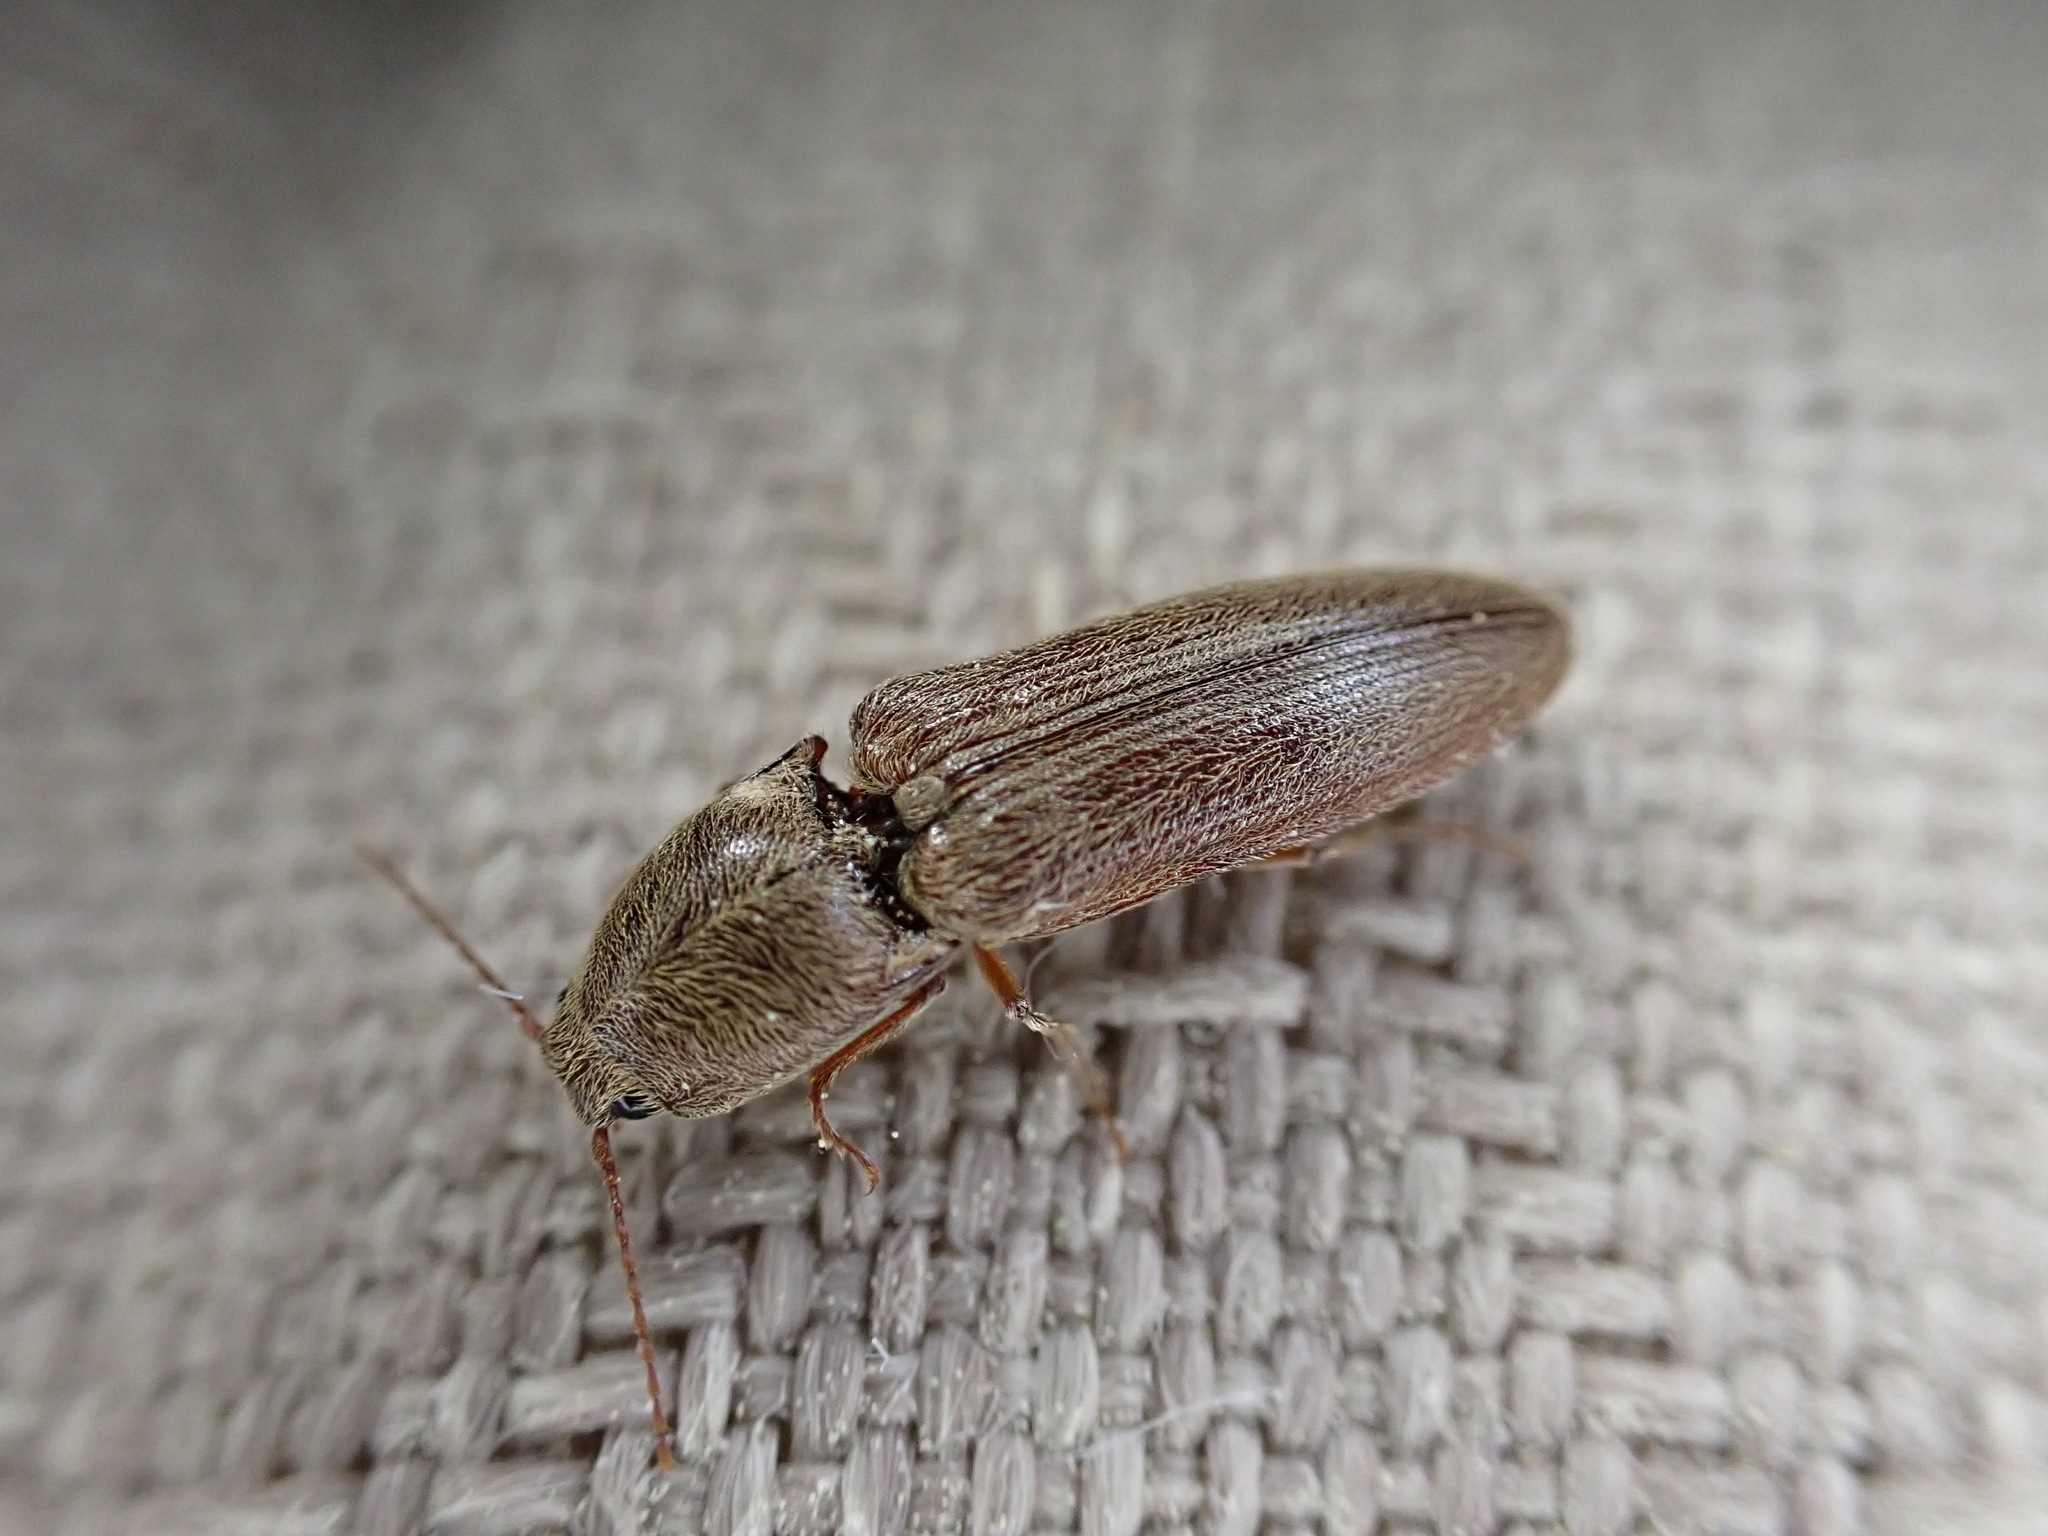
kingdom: Animalia
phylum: Arthropoda
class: Insecta
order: Coleoptera
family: Elateridae
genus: Gambrinus
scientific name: Gambrinus griseus
